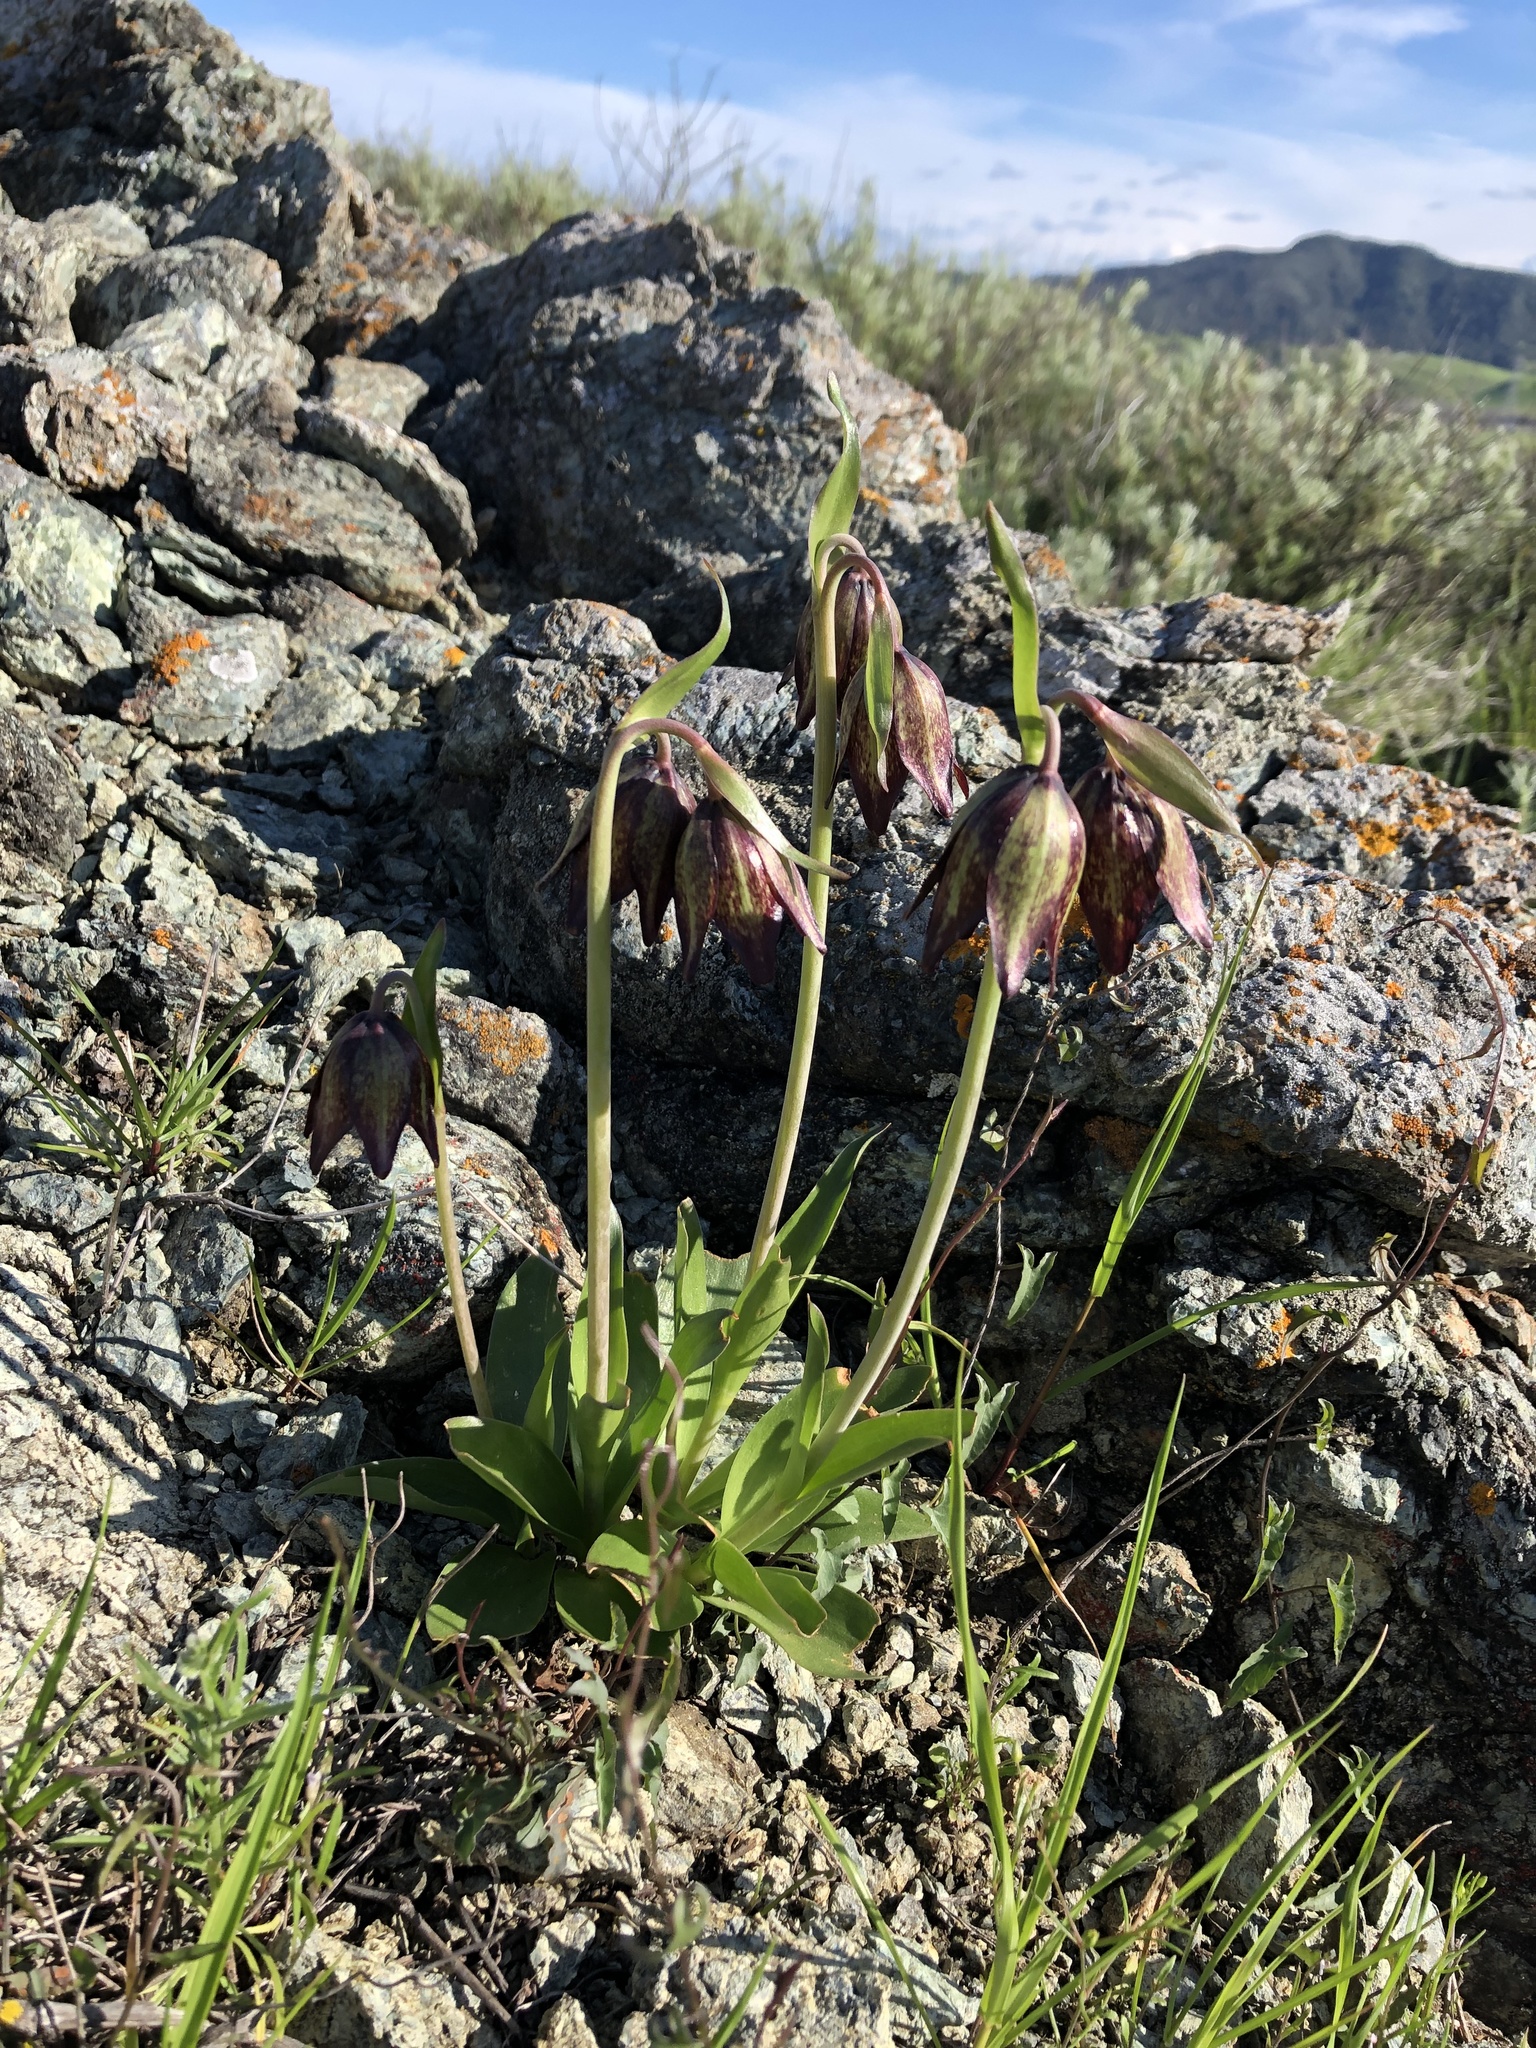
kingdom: Plantae
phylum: Tracheophyta
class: Liliopsida
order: Liliales
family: Liliaceae
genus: Fritillaria
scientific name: Fritillaria biflora
